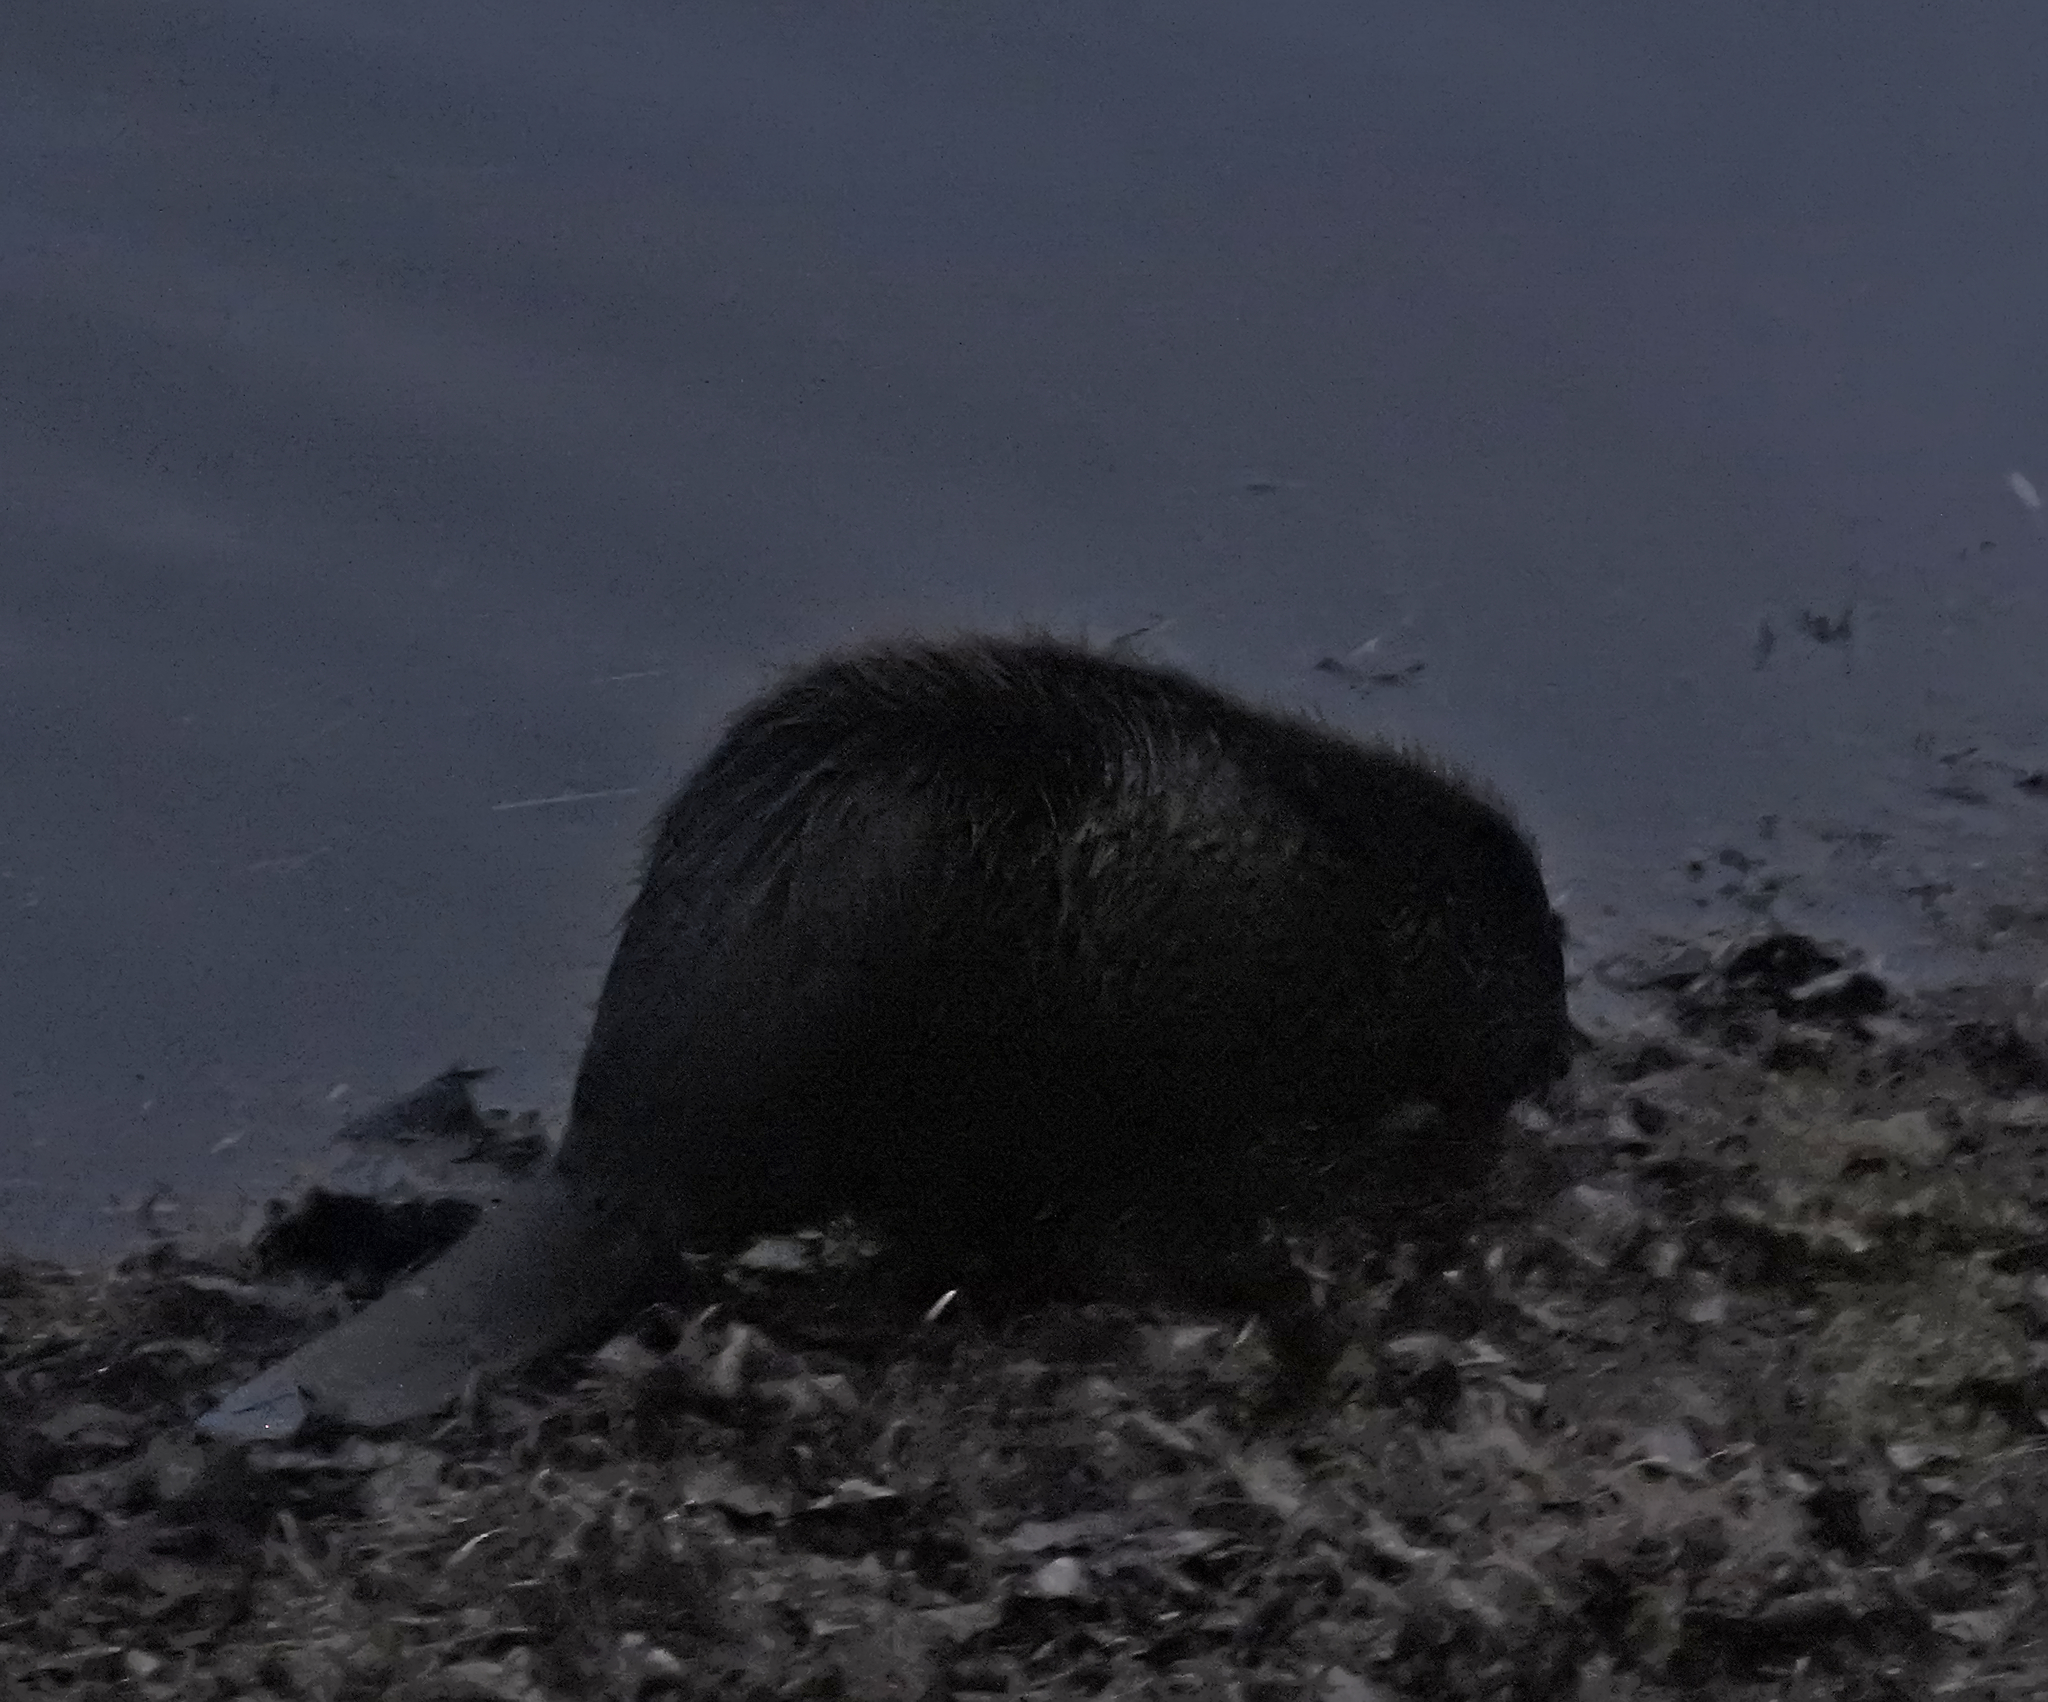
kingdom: Animalia
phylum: Chordata
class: Mammalia
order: Rodentia
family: Castoridae
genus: Castor
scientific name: Castor fiber
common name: Eurasian beaver
